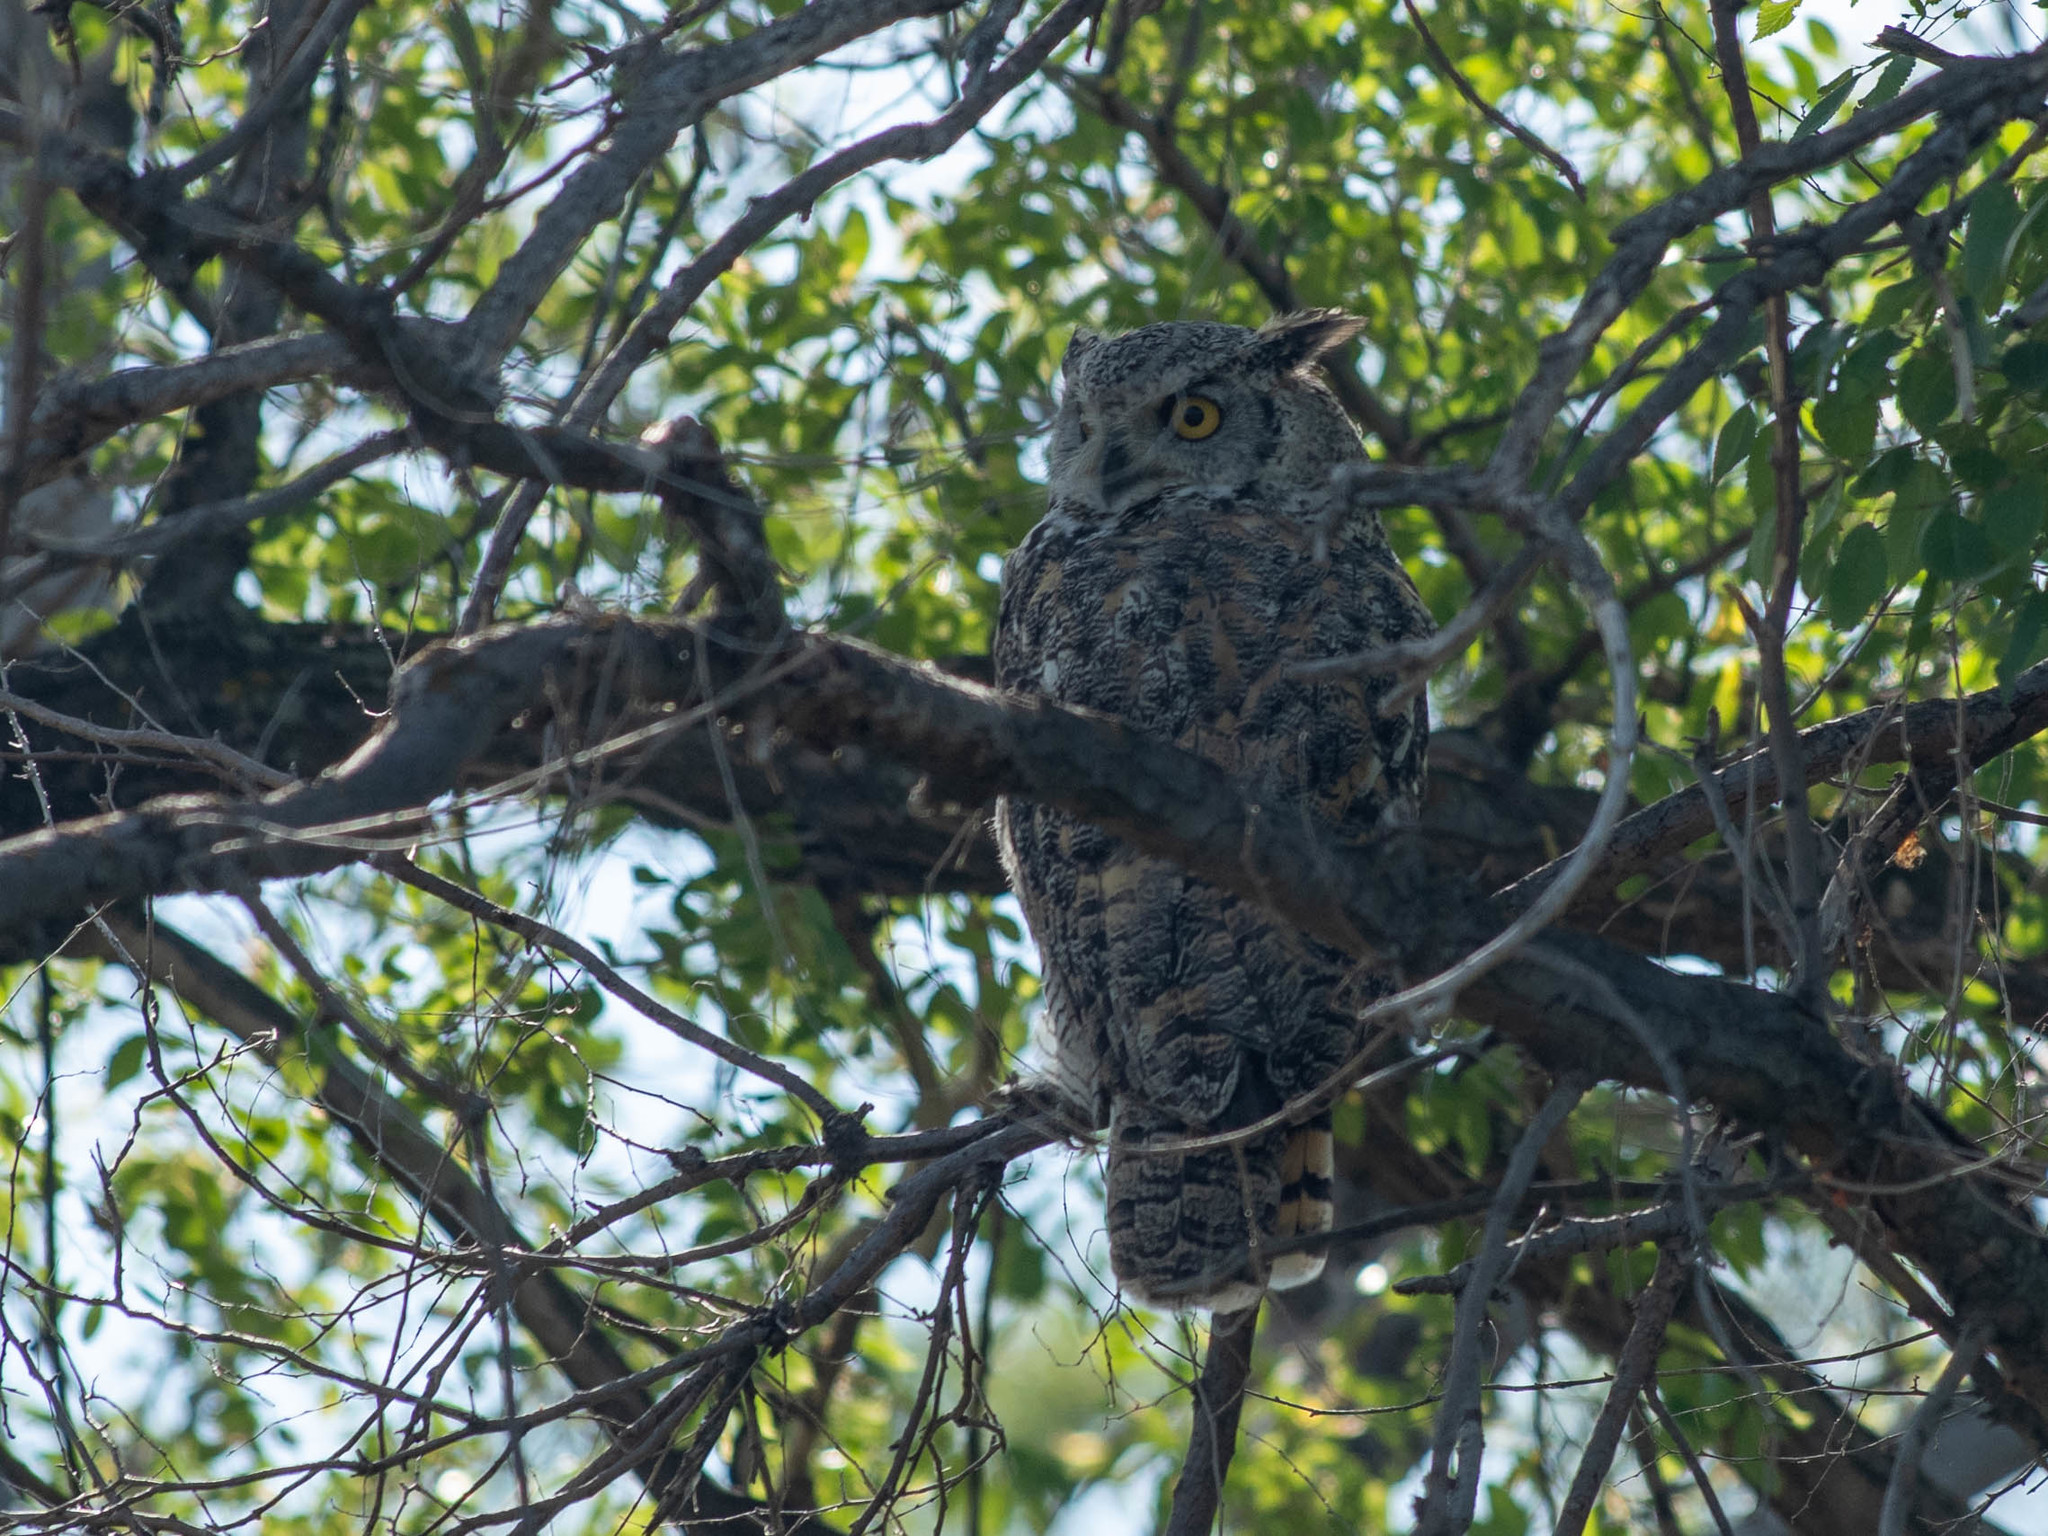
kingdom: Animalia
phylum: Chordata
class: Aves
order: Strigiformes
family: Strigidae
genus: Bubo
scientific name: Bubo virginianus
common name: Great horned owl
